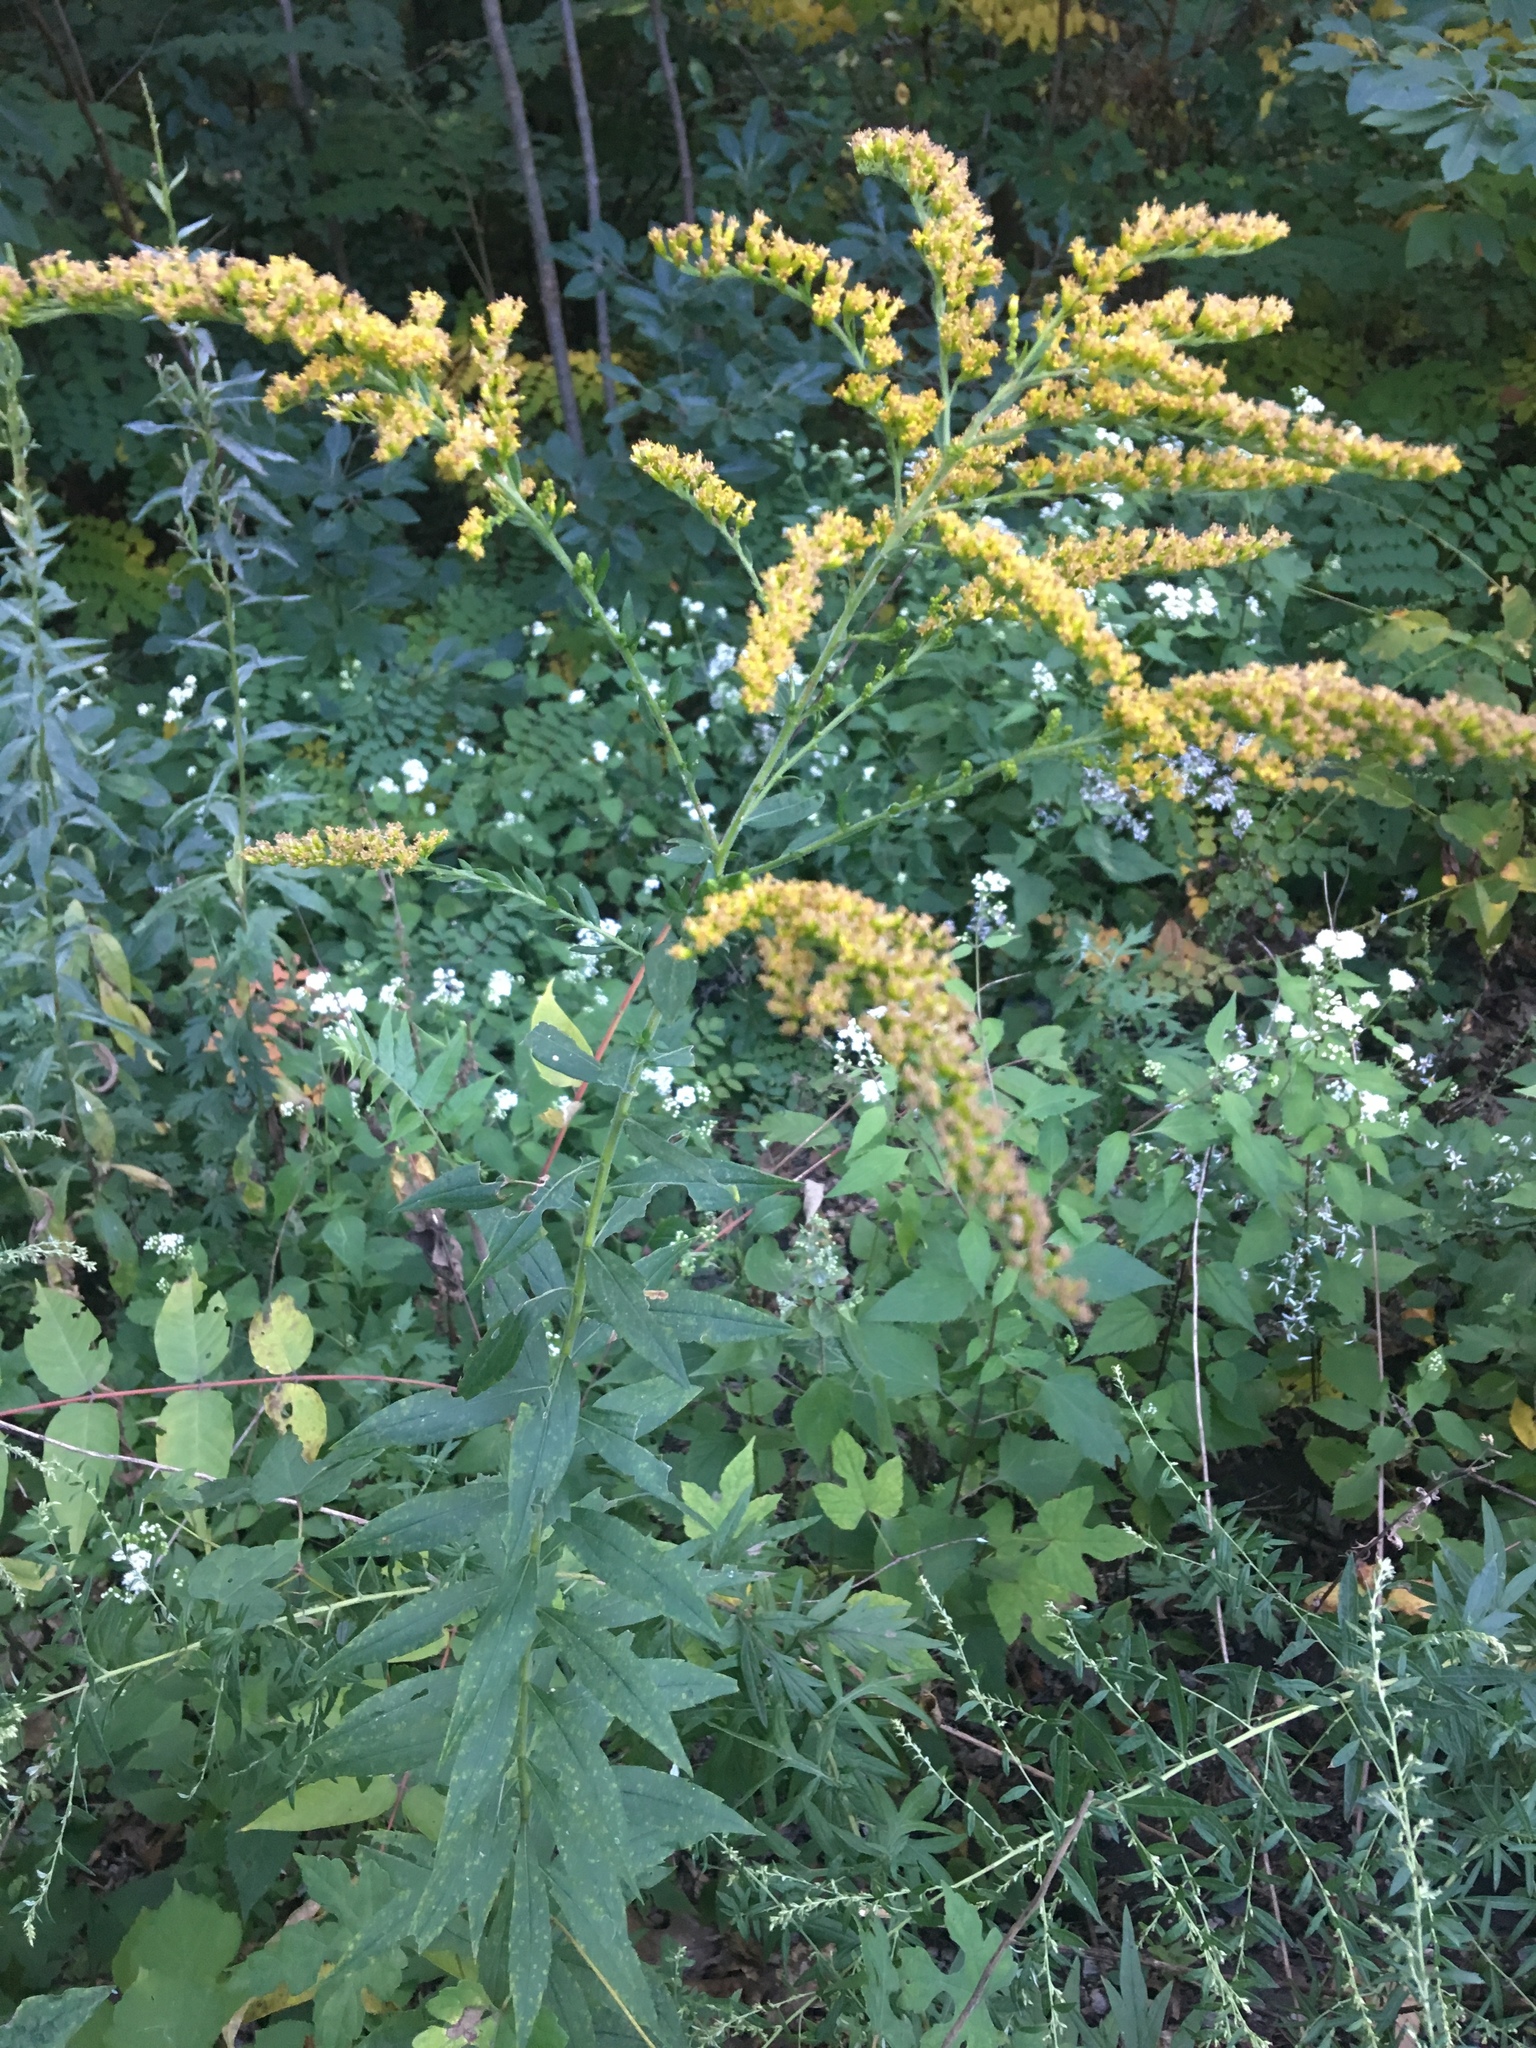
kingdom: Plantae
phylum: Tracheophyta
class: Magnoliopsida
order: Asterales
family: Asteraceae
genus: Solidago
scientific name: Solidago altissima
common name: Late goldenrod
